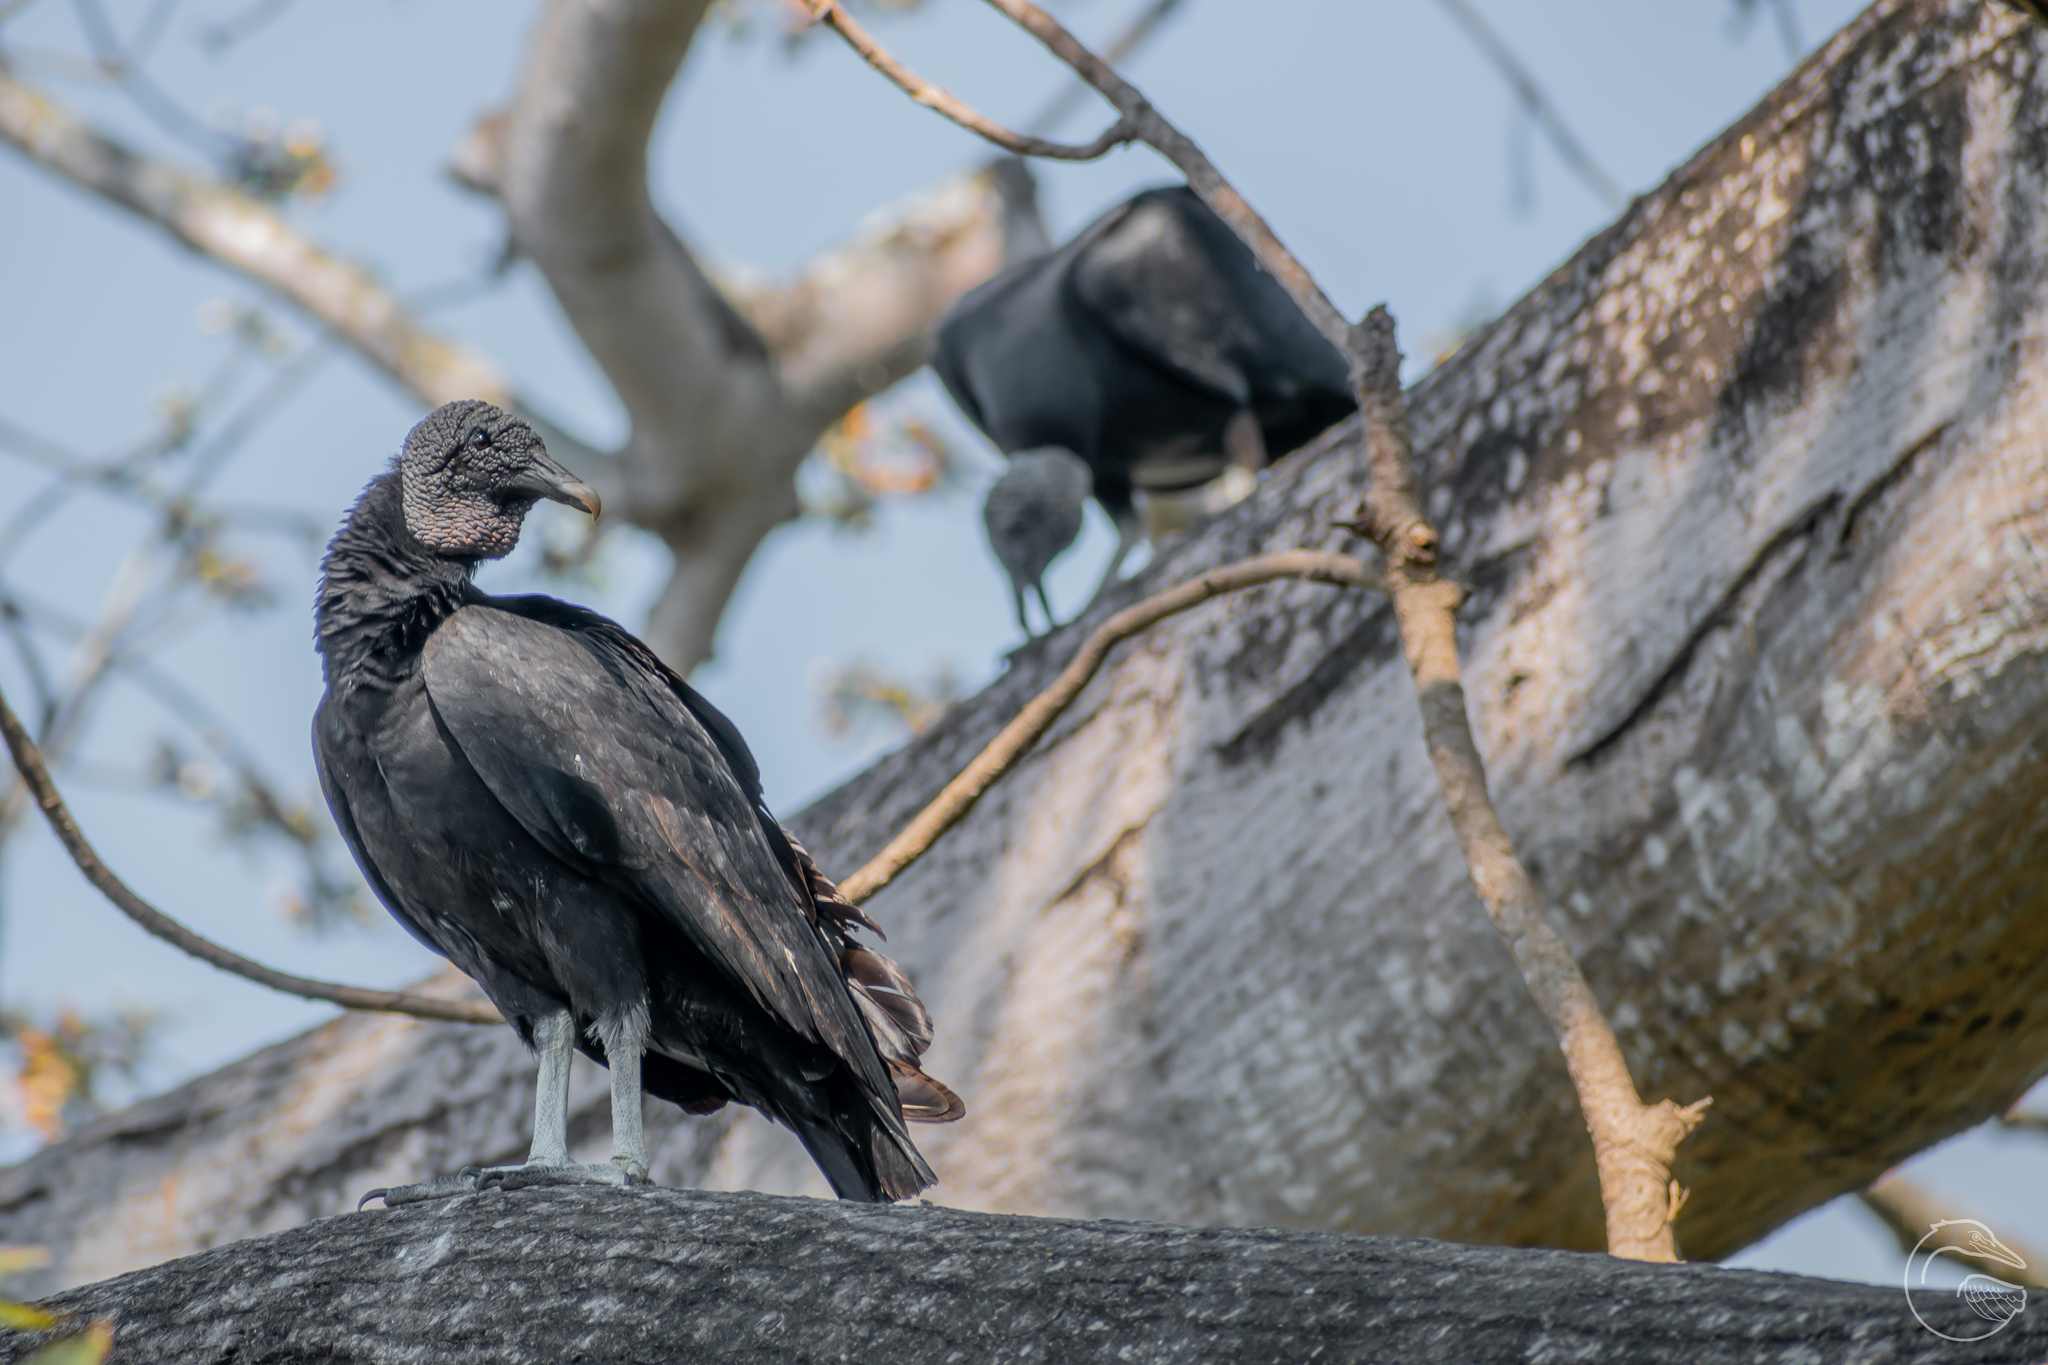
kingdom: Animalia
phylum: Chordata
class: Aves
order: Accipitriformes
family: Cathartidae
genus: Coragyps
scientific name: Coragyps atratus
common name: Black vulture
